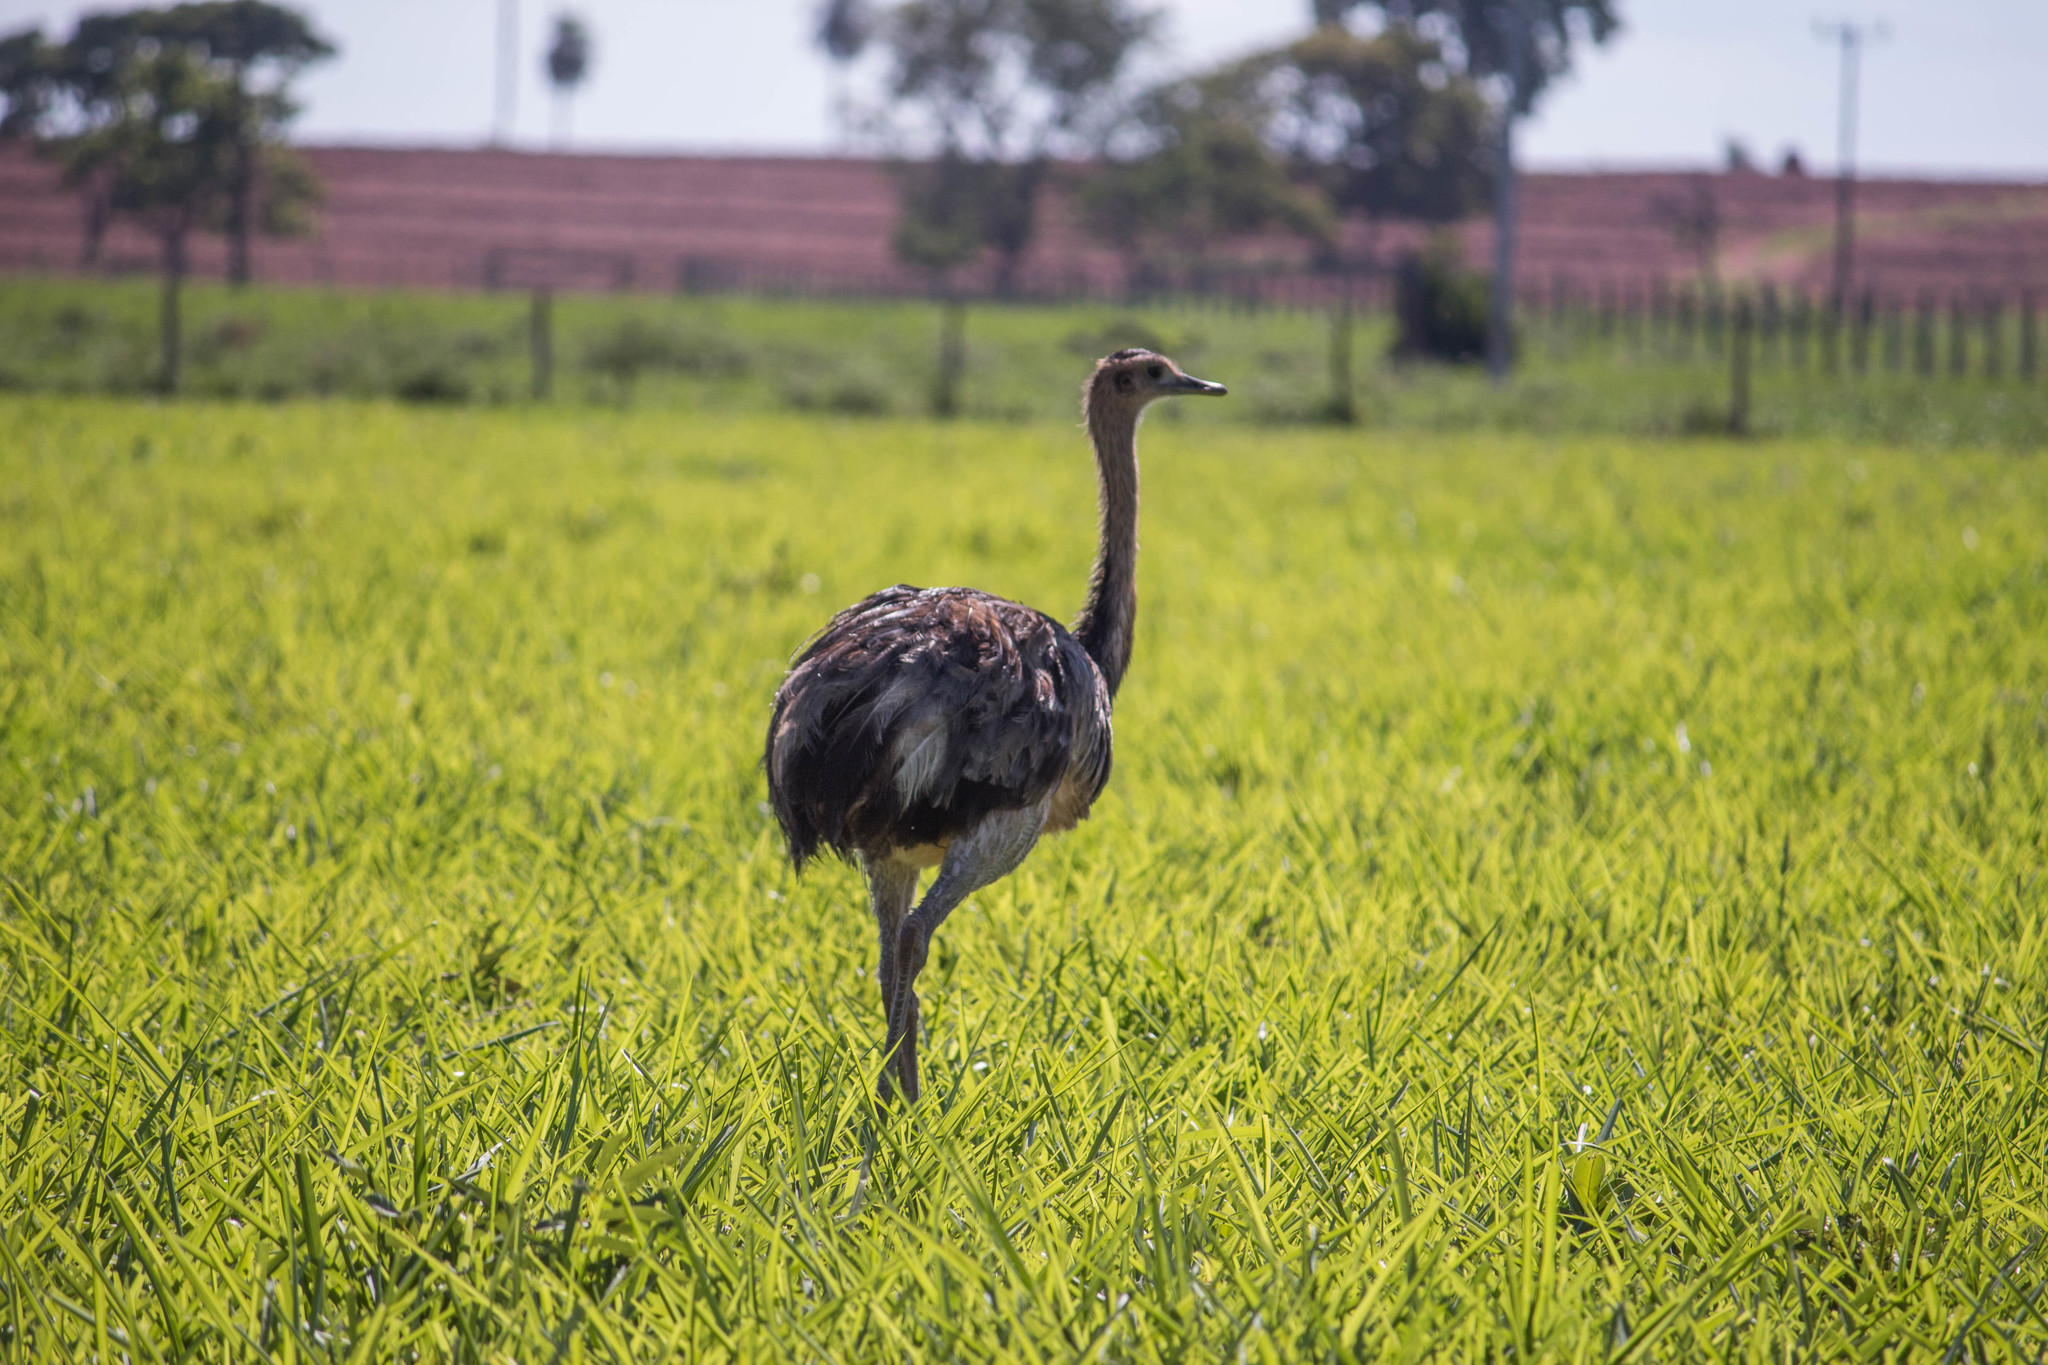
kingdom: Animalia
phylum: Chordata
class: Aves
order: Rheiformes
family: Rheidae
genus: Rhea
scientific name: Rhea americana
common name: Greater rhea
